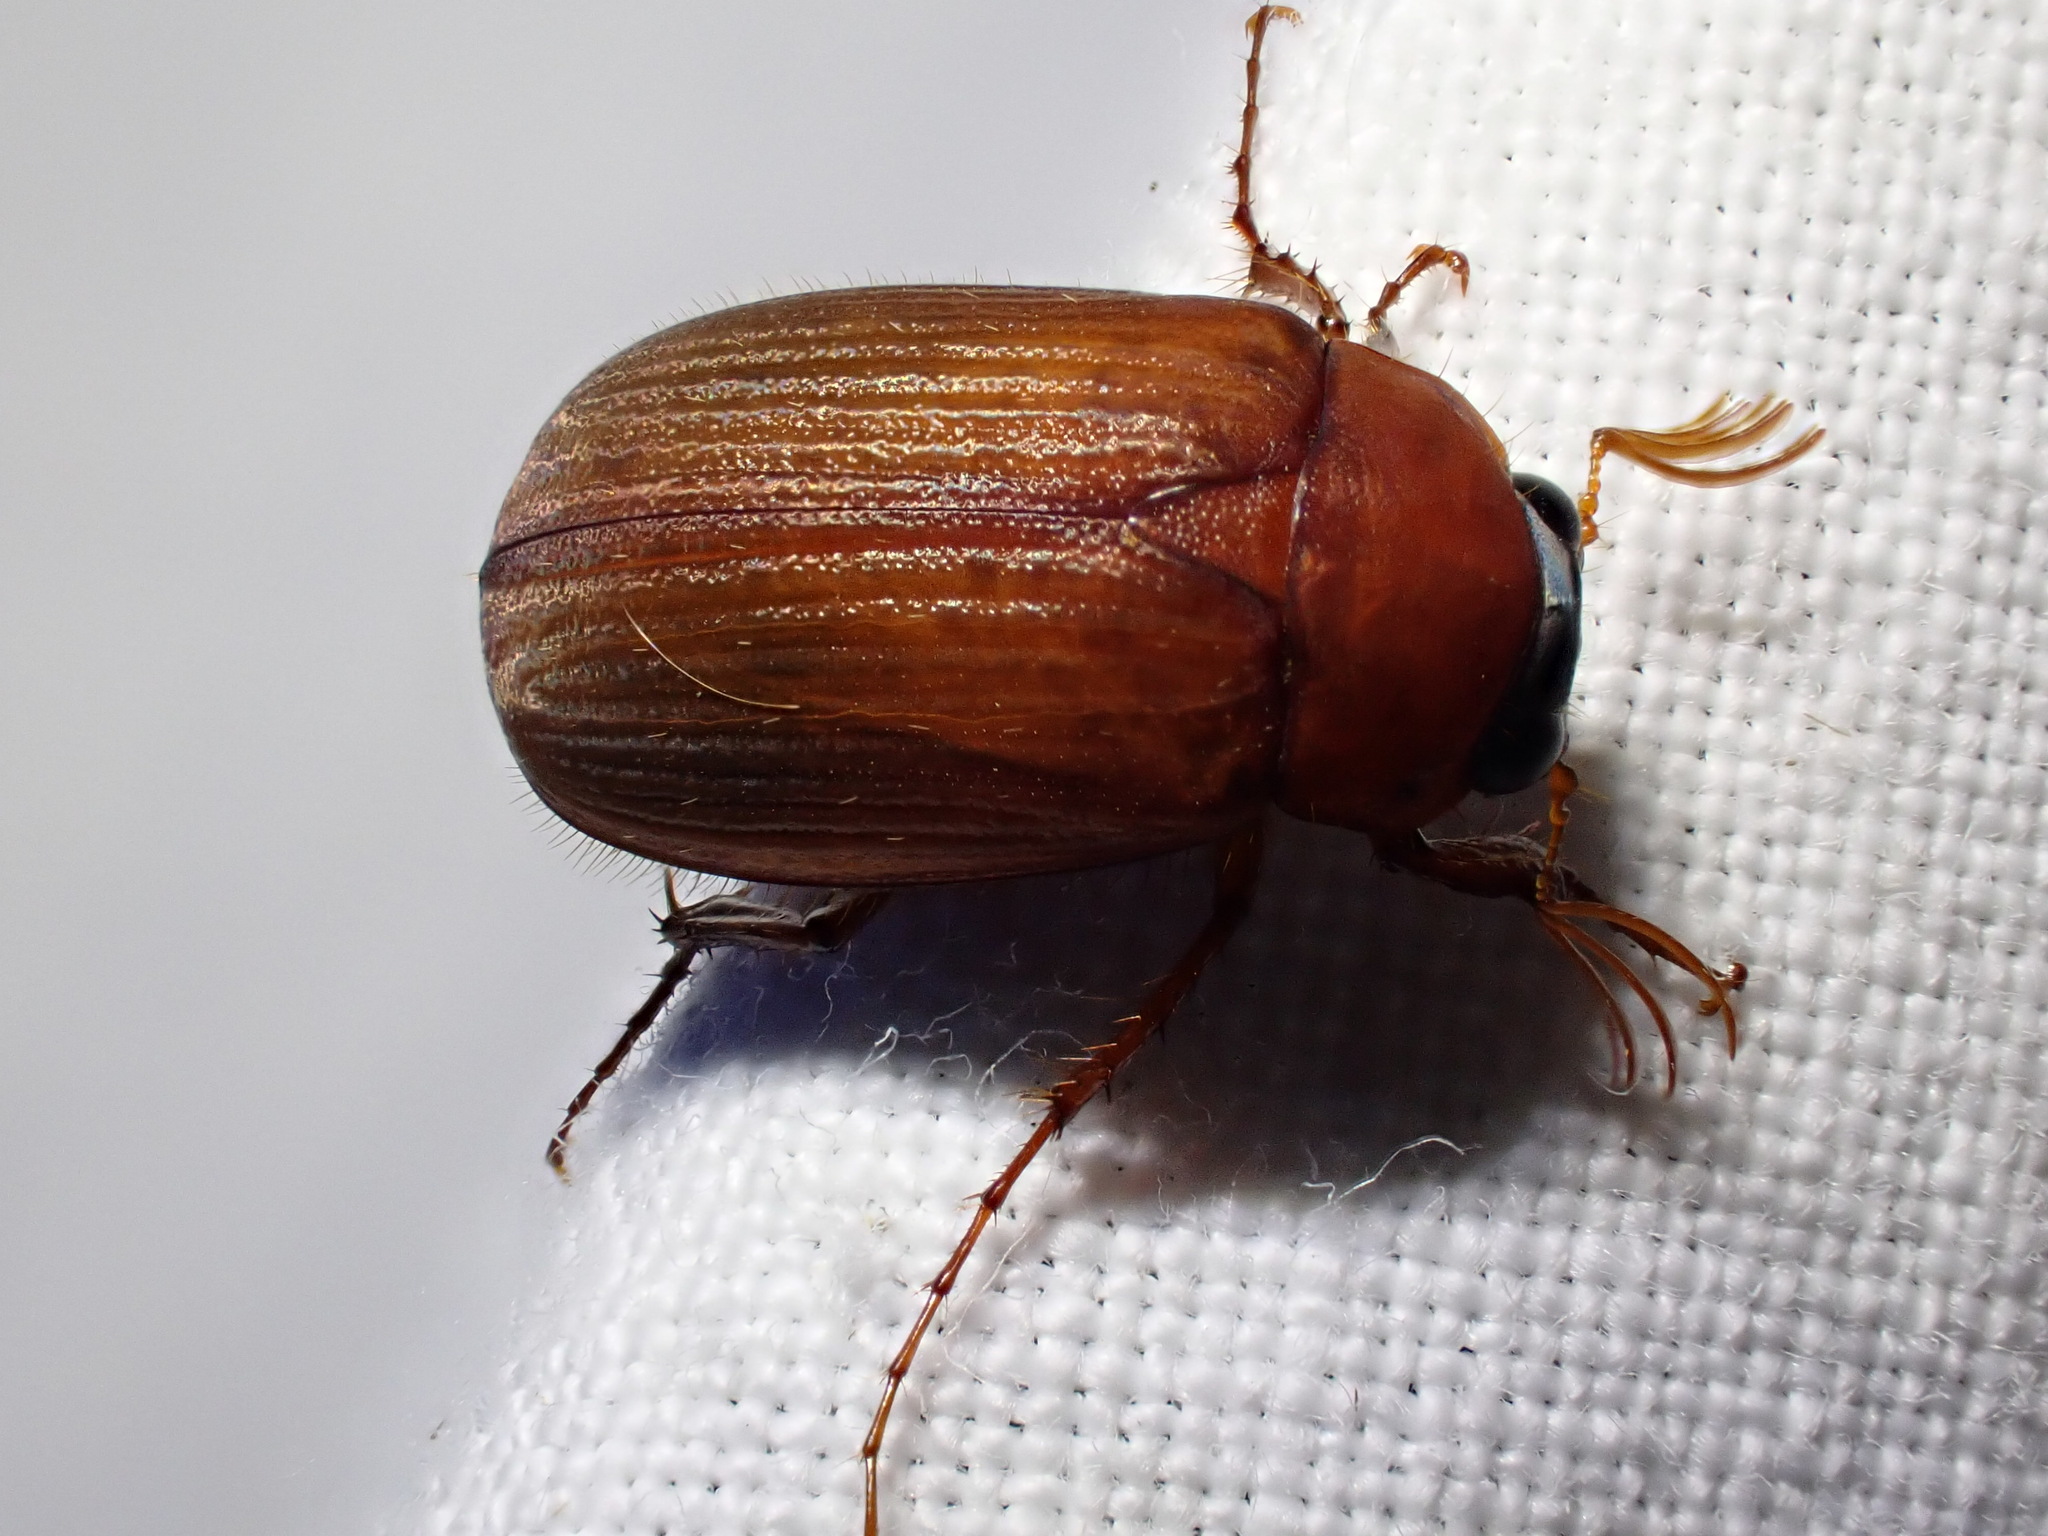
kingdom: Animalia
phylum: Arthropoda
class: Insecta
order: Coleoptera
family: Scarabaeidae
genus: Serica
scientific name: Serica brunnea
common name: Brown chafer
